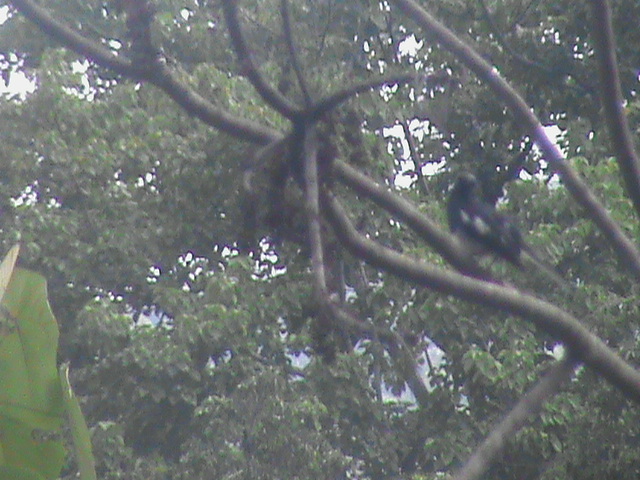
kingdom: Animalia
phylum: Chordata
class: Aves
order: Passeriformes
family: Muscicapidae
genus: Copsychus
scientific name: Copsychus saularis
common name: Oriental magpie-robin
